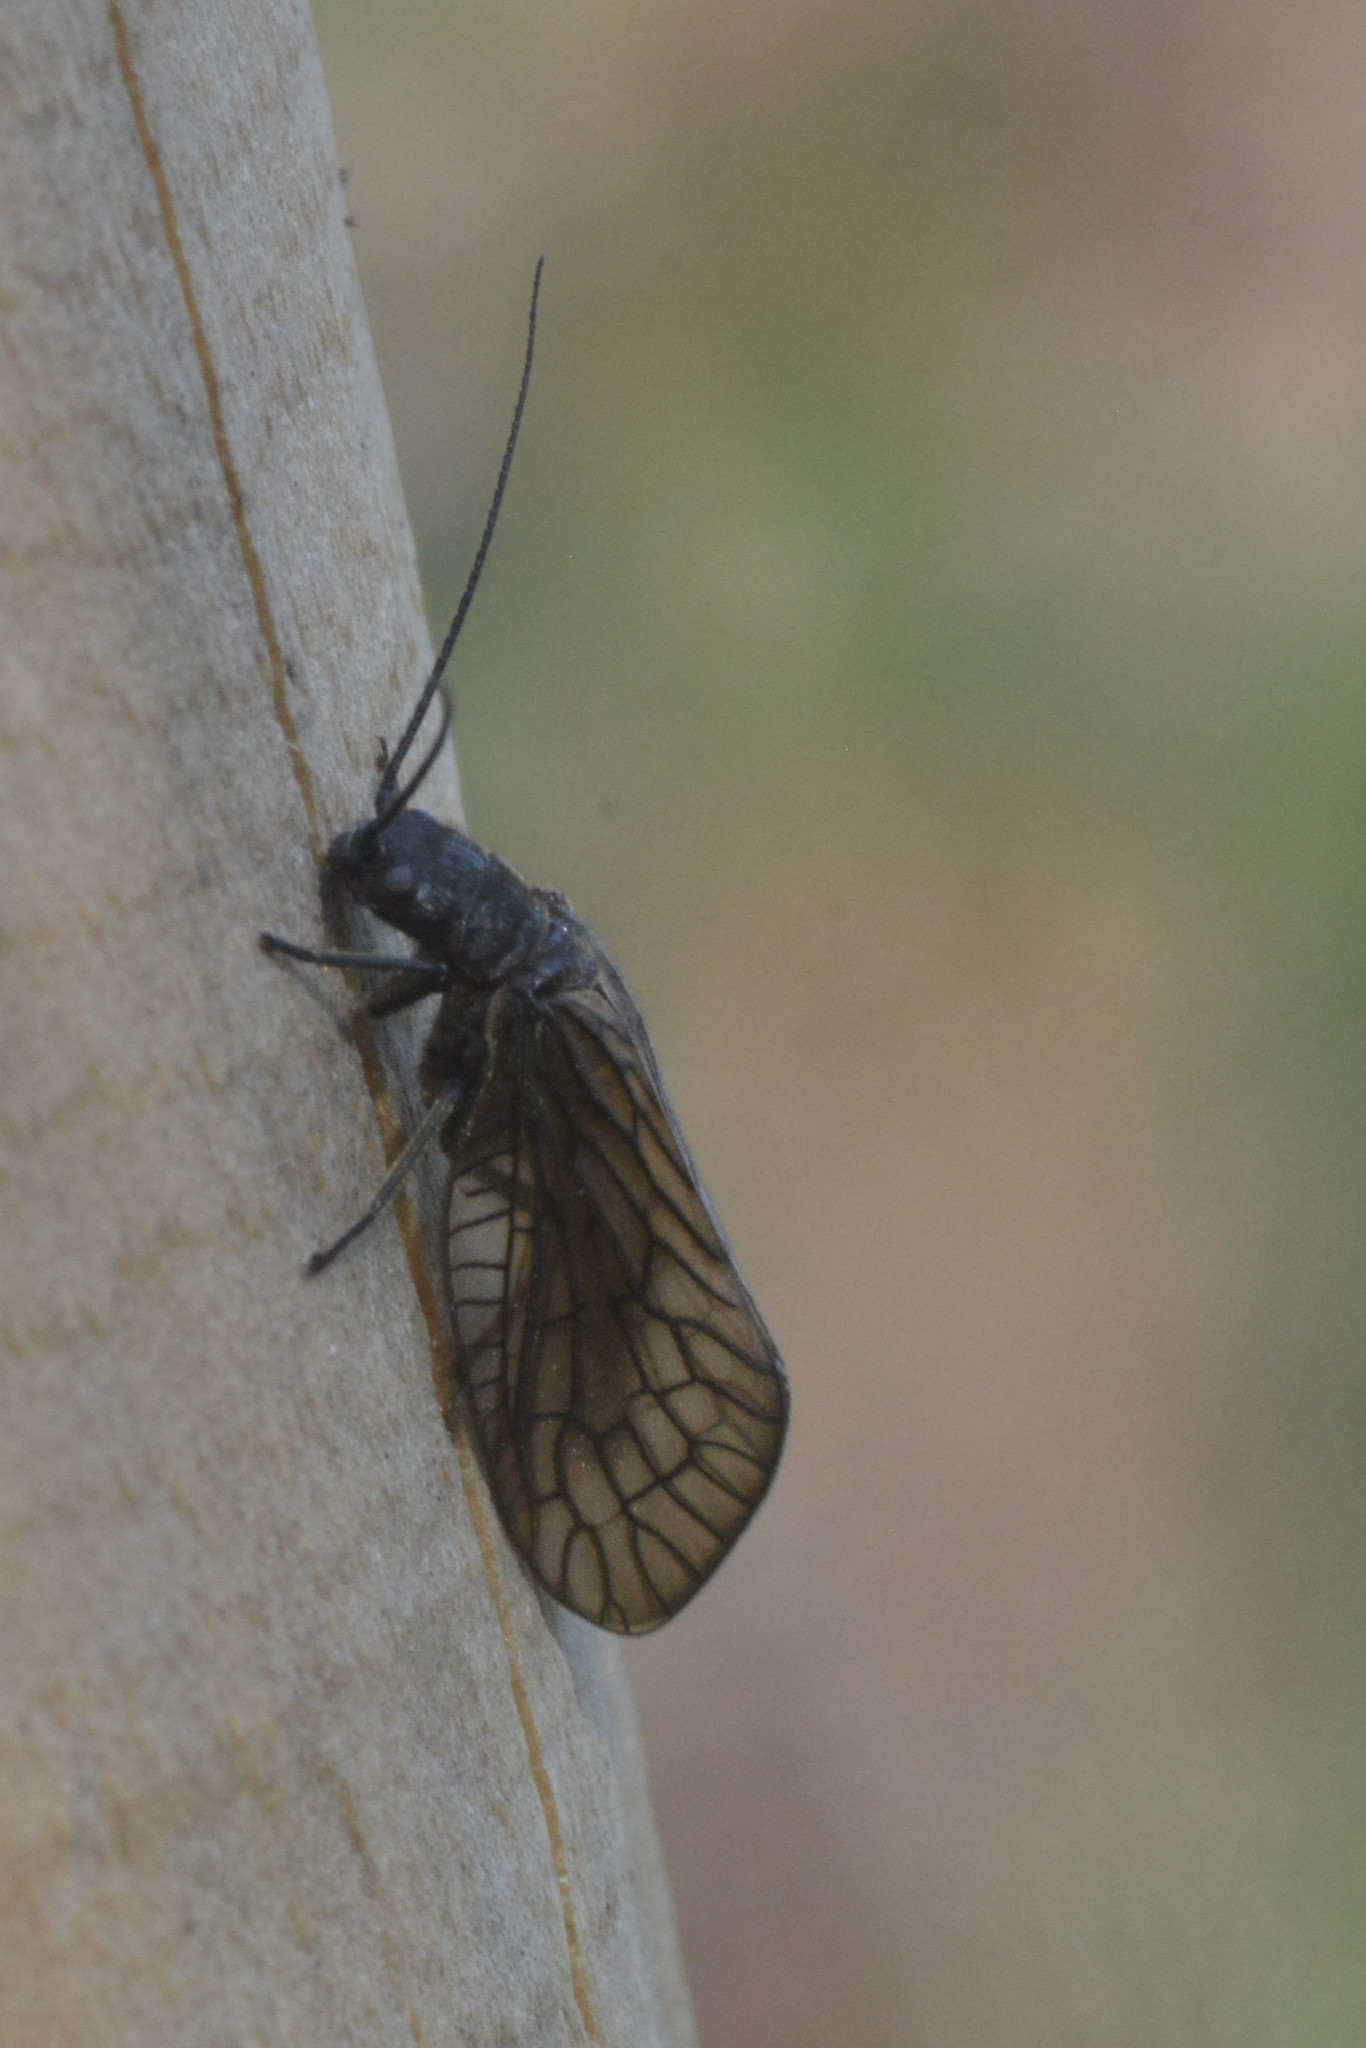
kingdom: Animalia
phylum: Arthropoda
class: Insecta
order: Megaloptera
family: Sialidae
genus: Sialis
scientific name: Sialis
